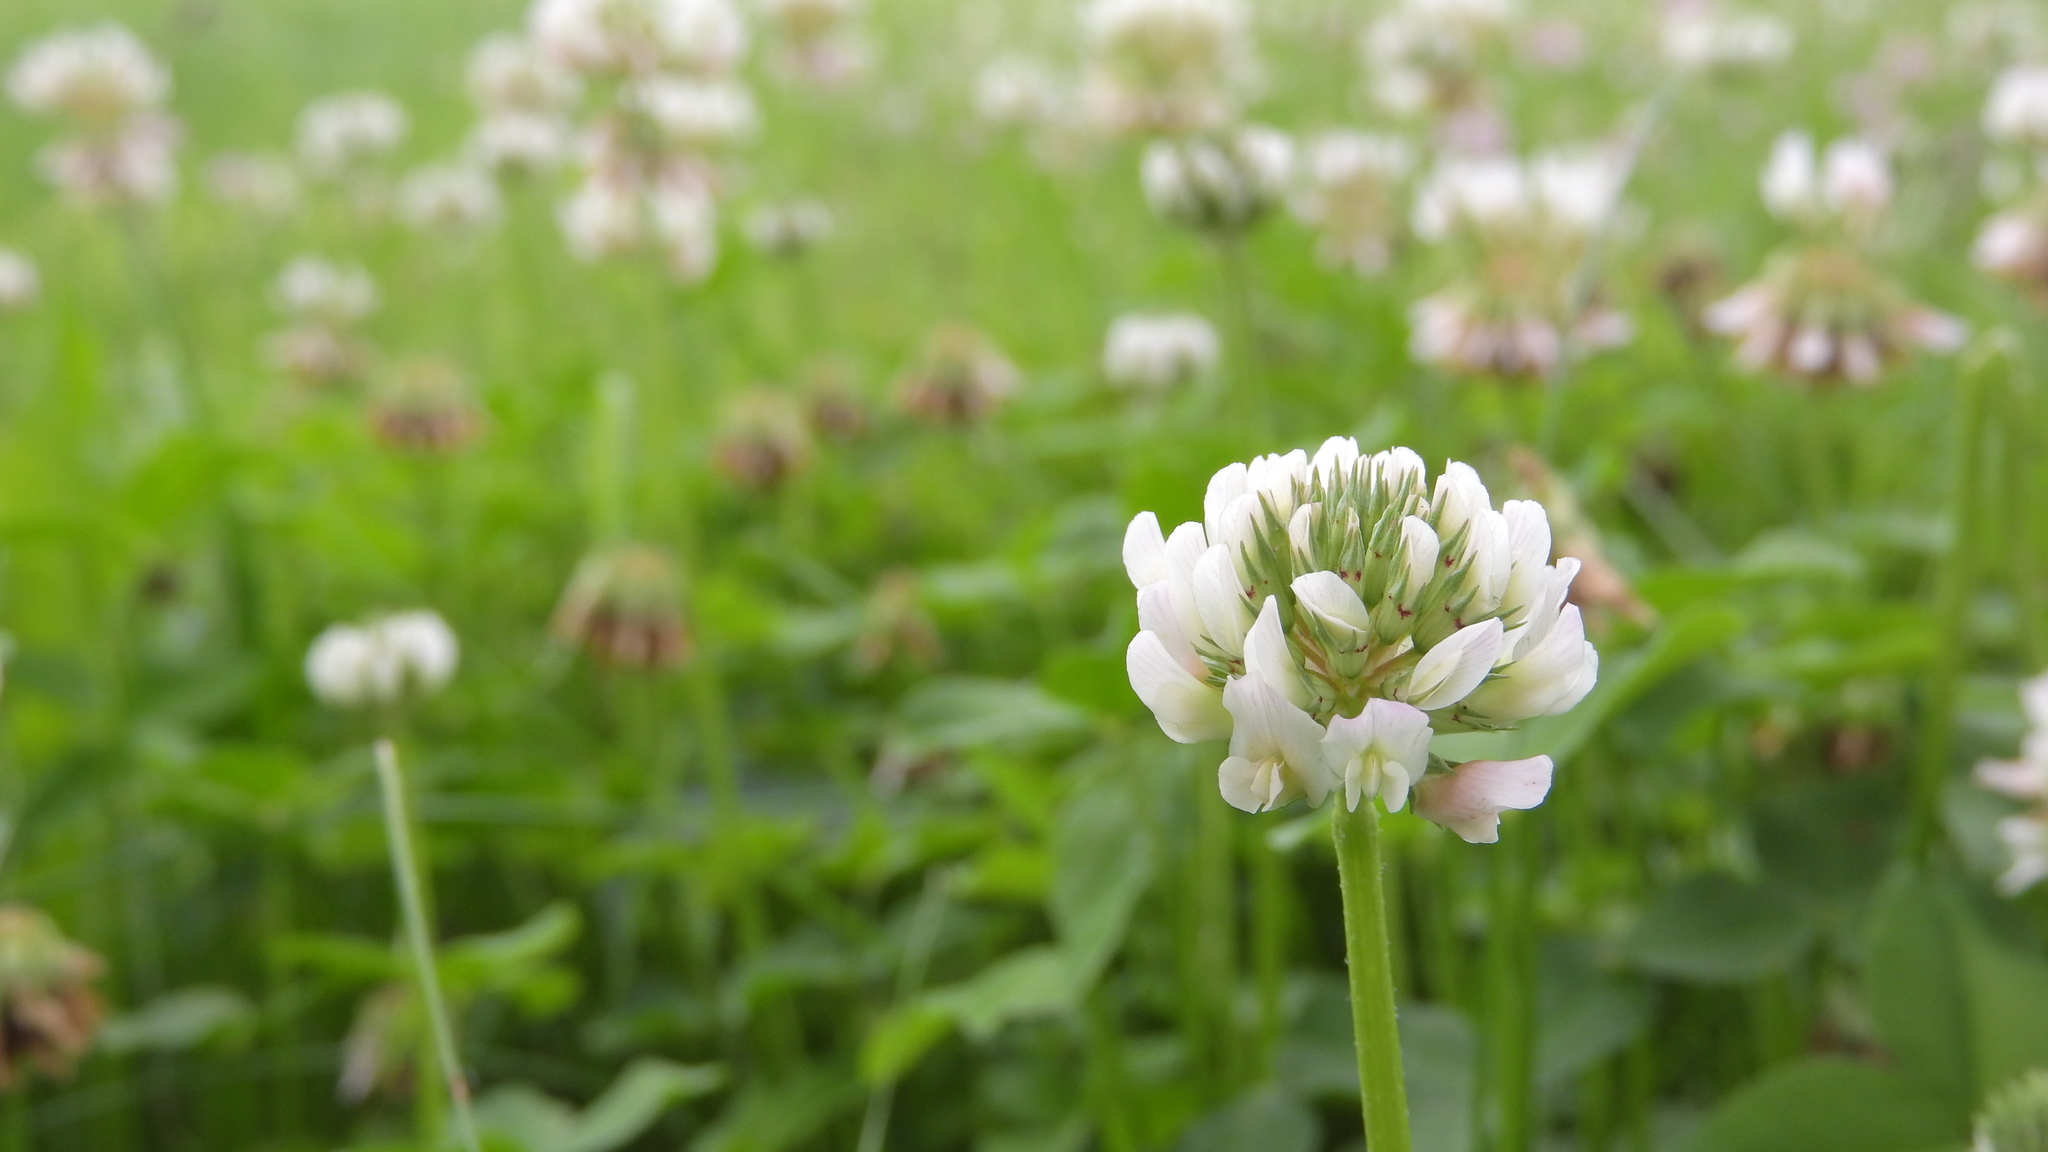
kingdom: Plantae
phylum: Tracheophyta
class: Magnoliopsida
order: Fabales
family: Fabaceae
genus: Trifolium
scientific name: Trifolium repens
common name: White clover
